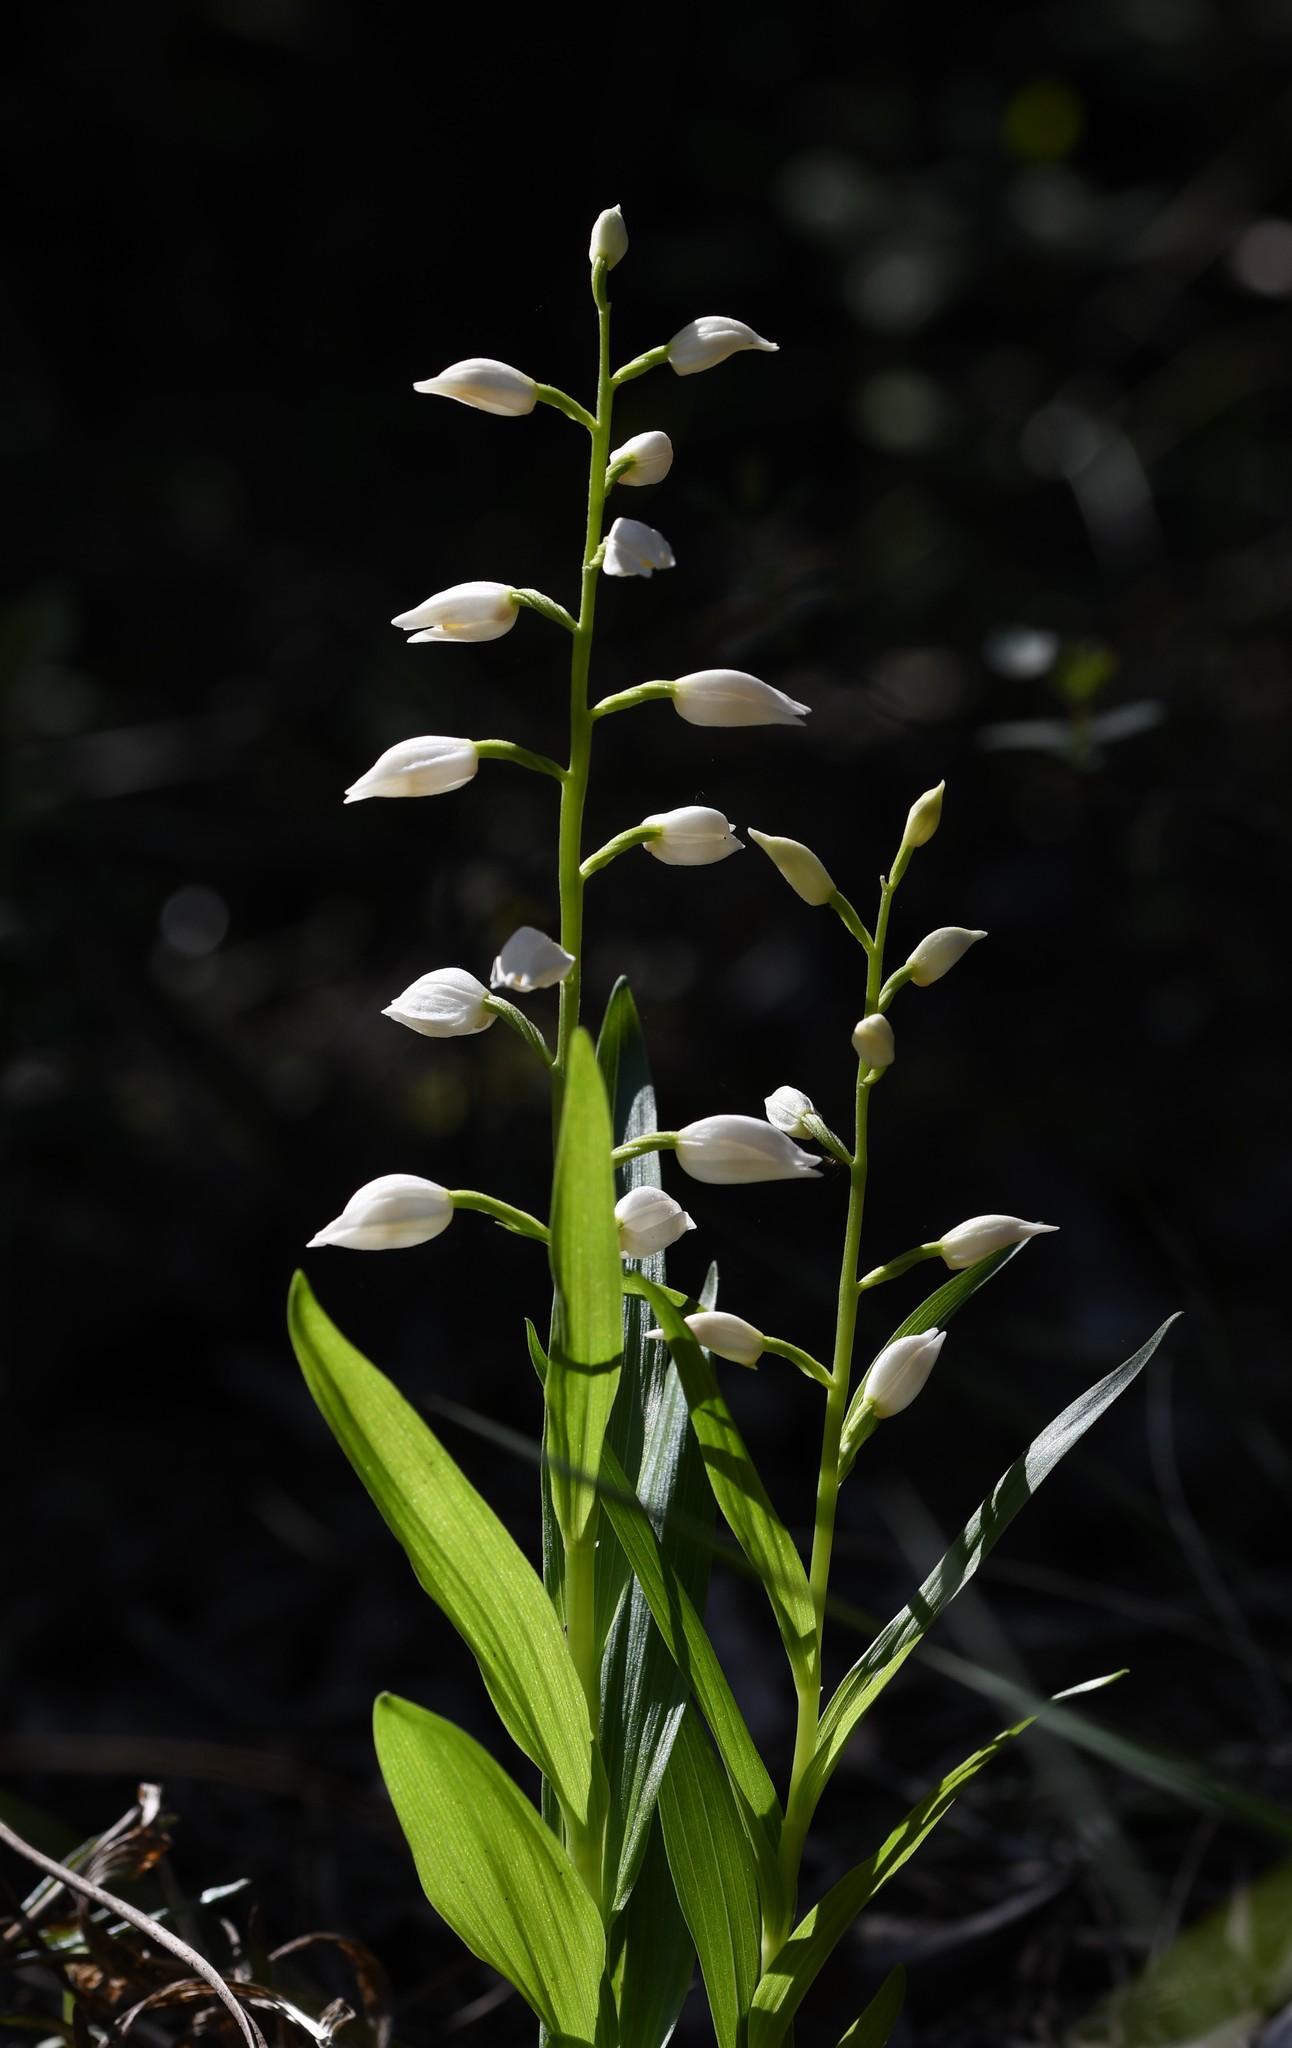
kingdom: Plantae
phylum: Tracheophyta
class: Liliopsida
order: Asparagales
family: Orchidaceae
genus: Cephalanthera
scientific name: Cephalanthera longifolia
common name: Narrow-leaved helleborine
